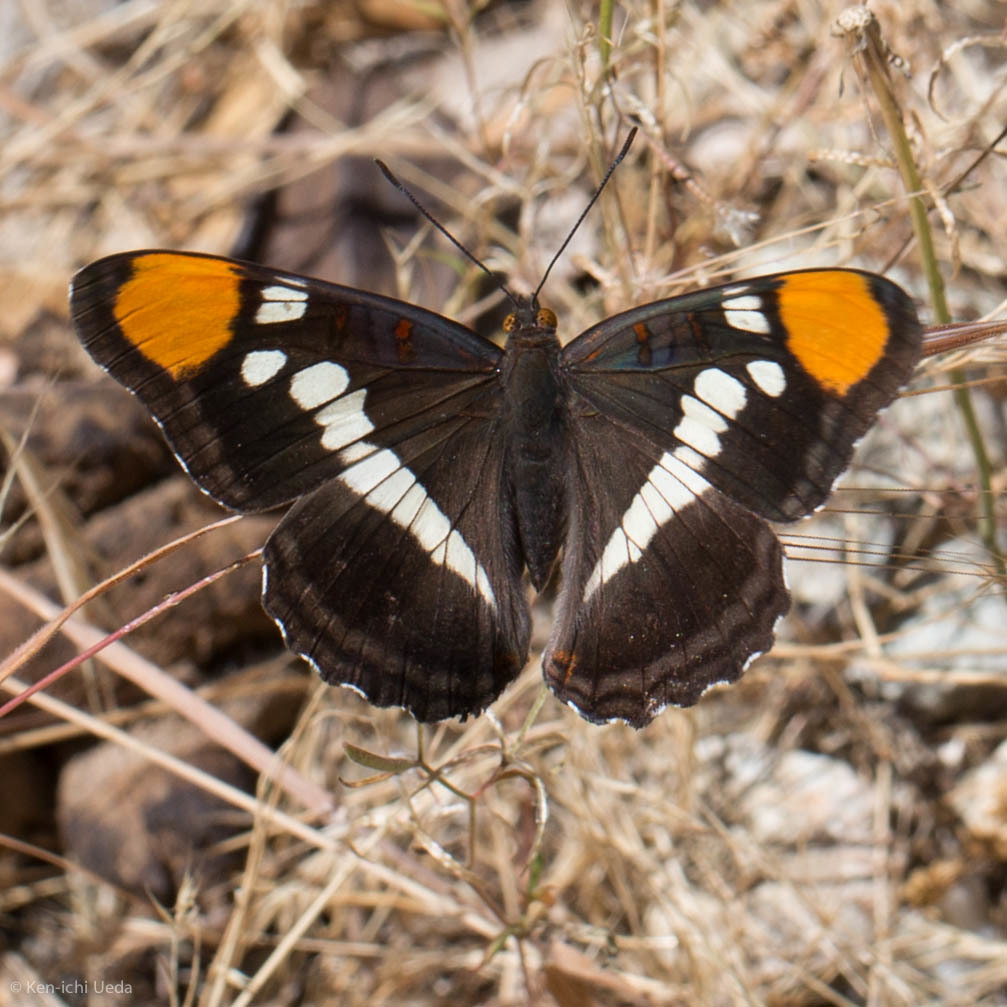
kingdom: Animalia
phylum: Arthropoda
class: Insecta
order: Lepidoptera
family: Nymphalidae
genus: Limenitis
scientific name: Limenitis bredowii
